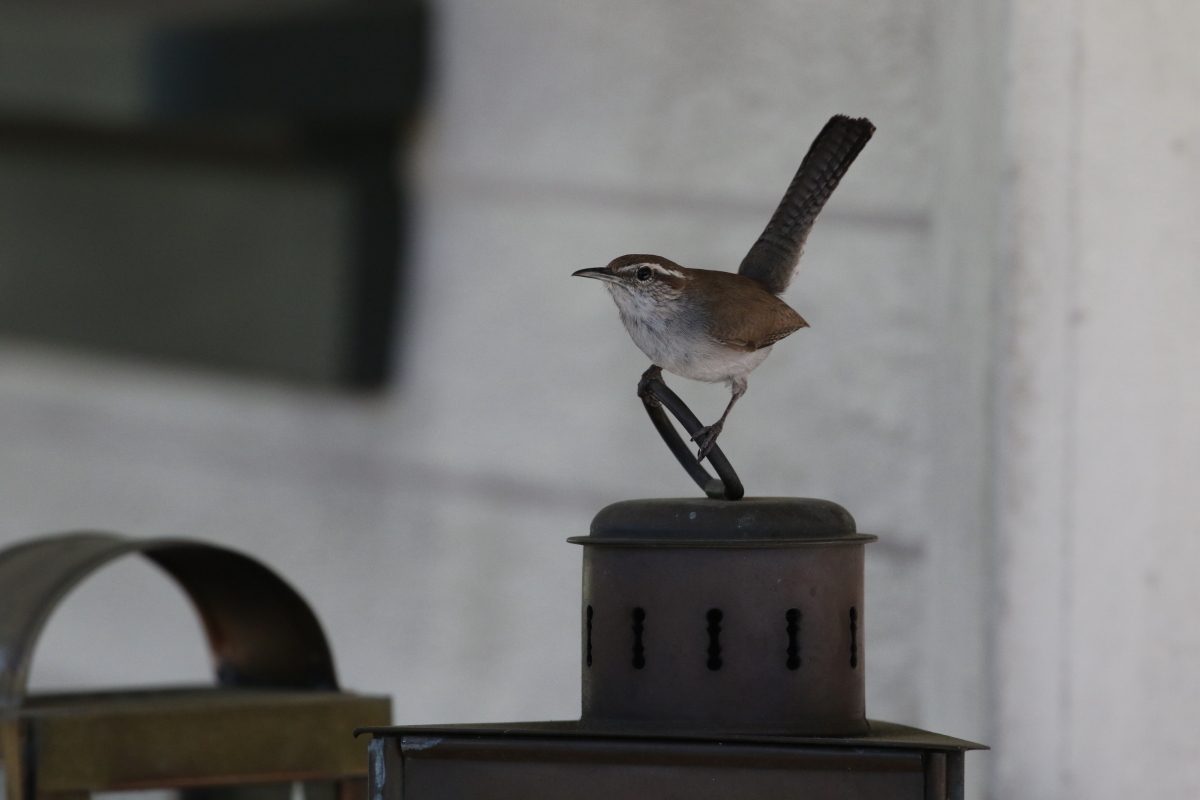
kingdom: Animalia
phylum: Chordata
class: Aves
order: Passeriformes
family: Troglodytidae
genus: Thryomanes
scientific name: Thryomanes bewickii
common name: Bewick's wren
